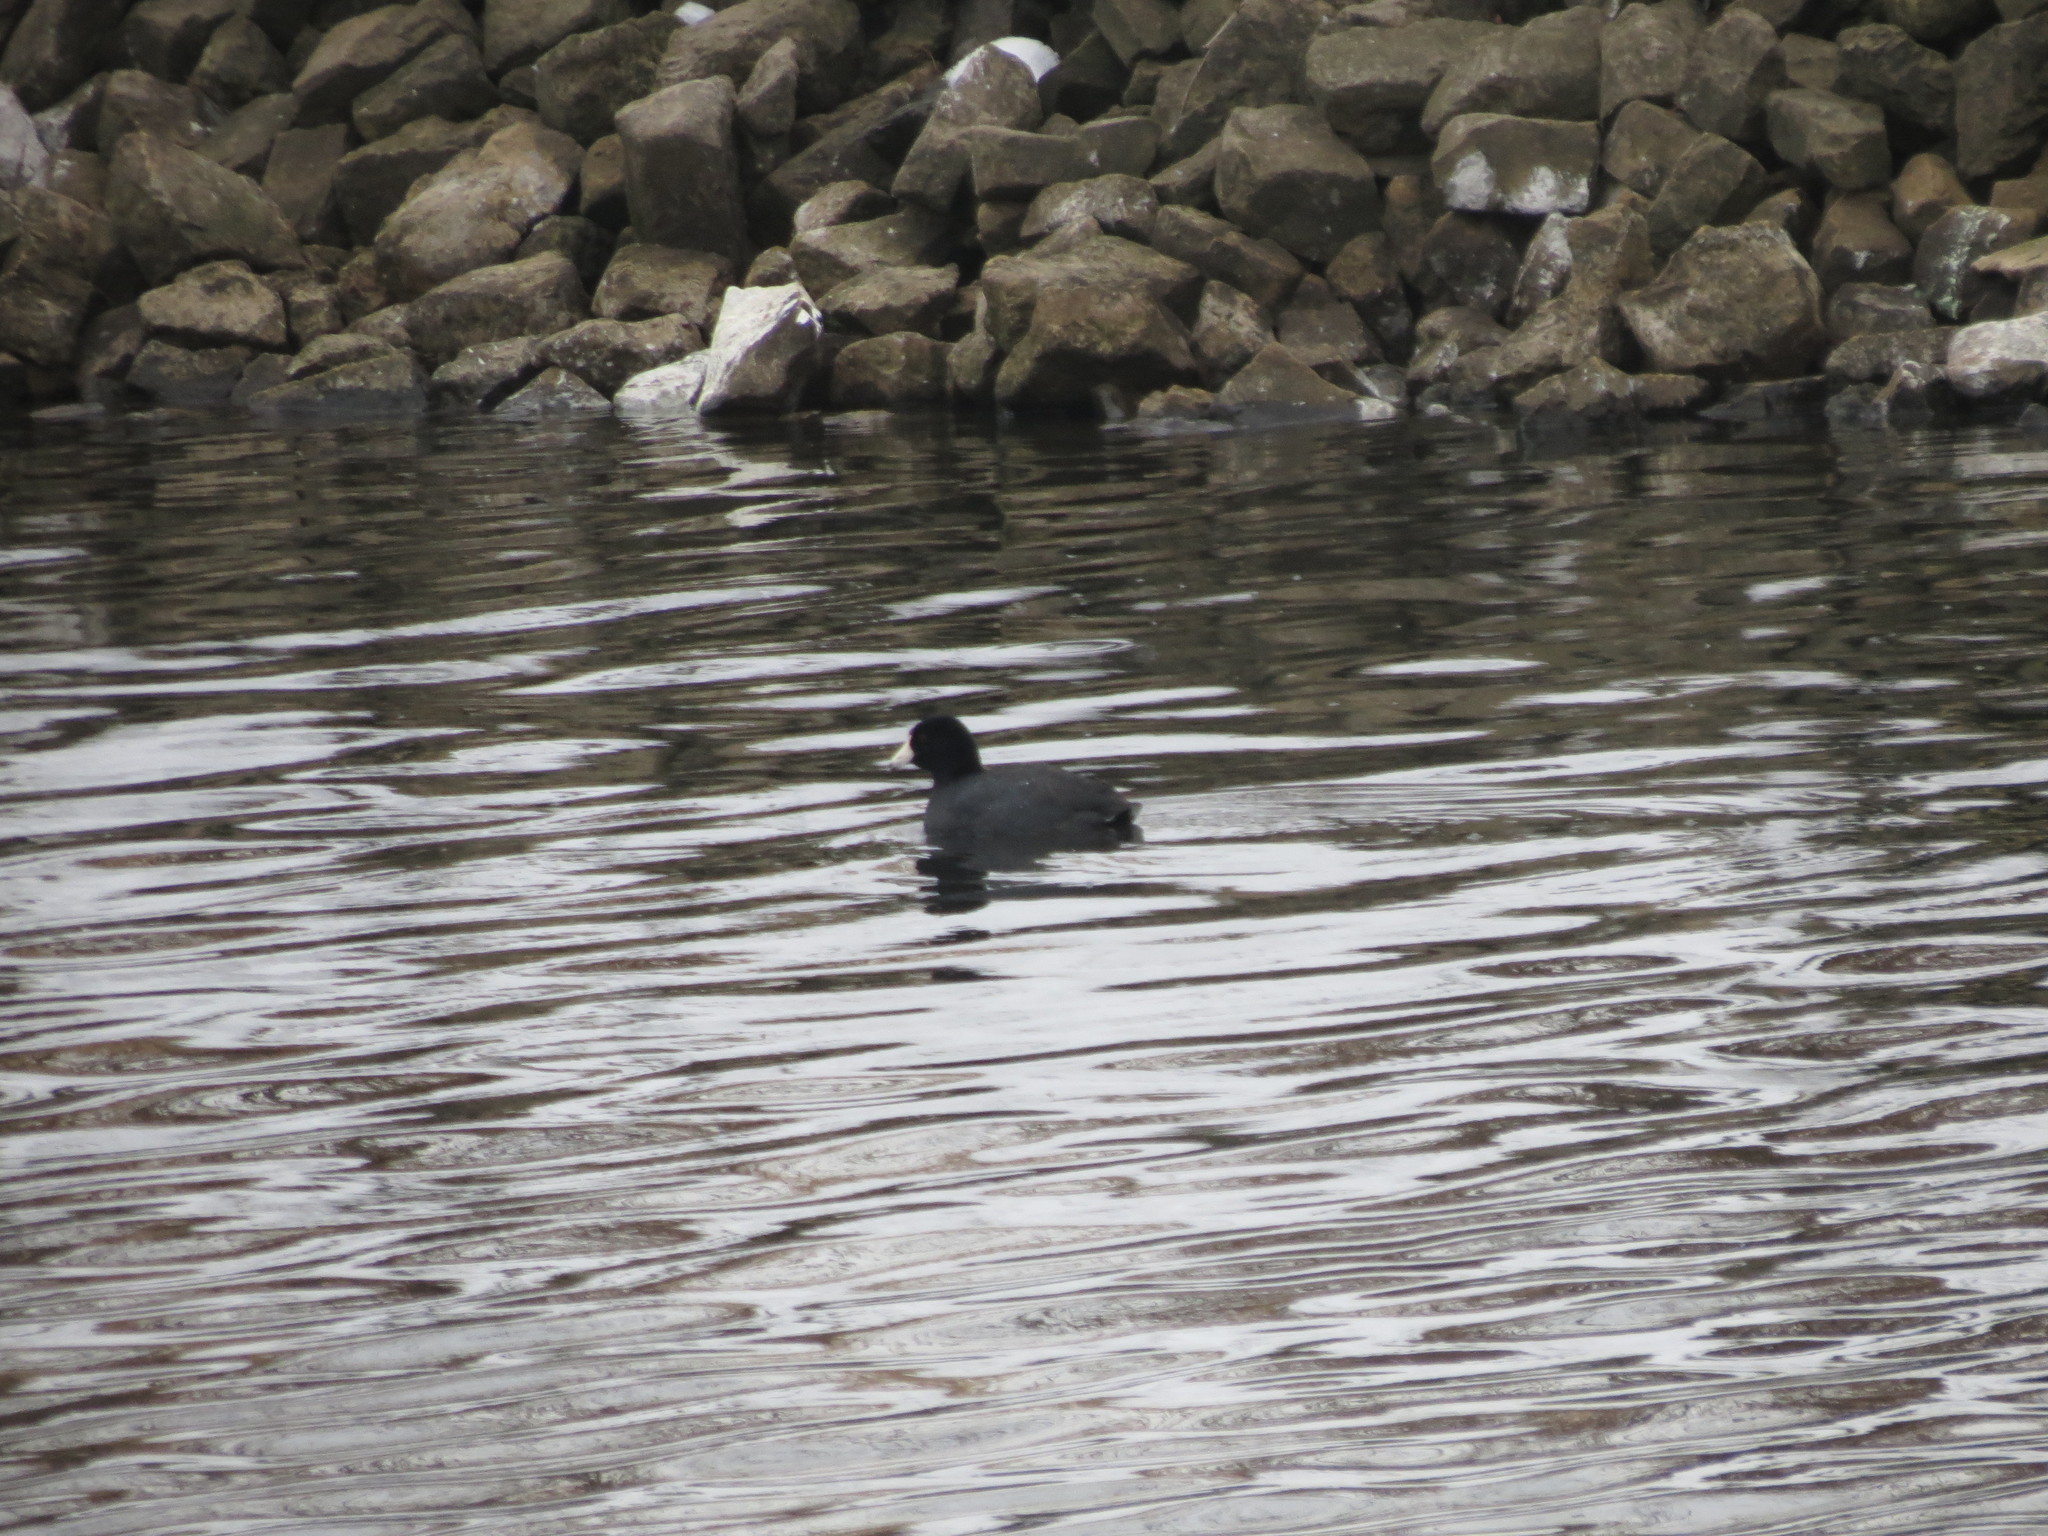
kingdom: Animalia
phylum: Chordata
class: Aves
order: Gruiformes
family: Rallidae
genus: Fulica
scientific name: Fulica americana
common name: American coot
